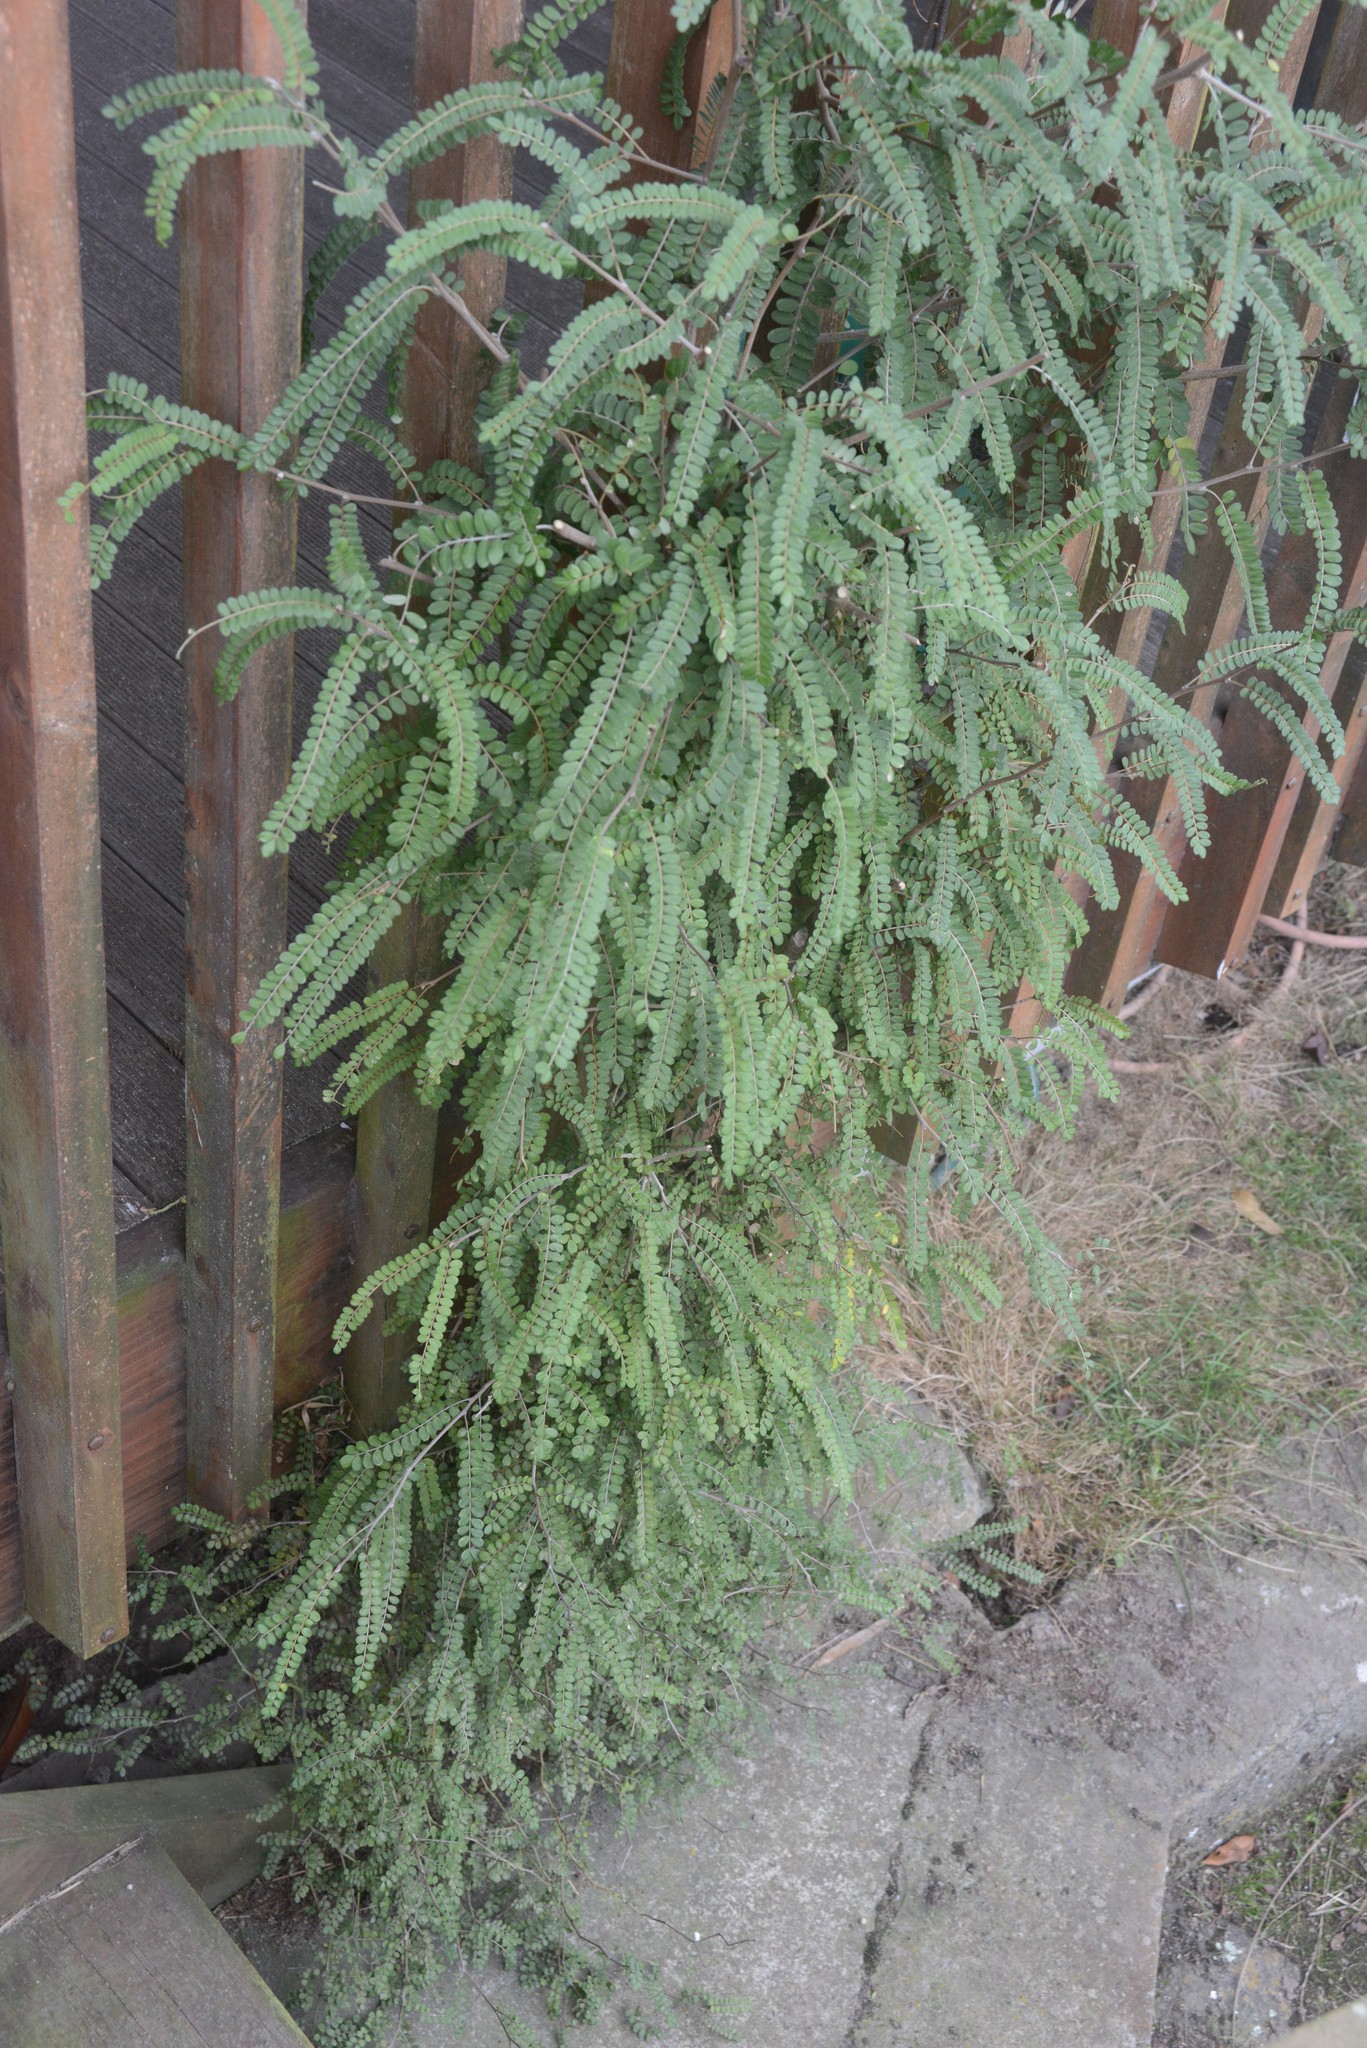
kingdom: Plantae
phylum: Tracheophyta
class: Magnoliopsida
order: Fabales
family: Fabaceae
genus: Sophora
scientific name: Sophora microphylla
